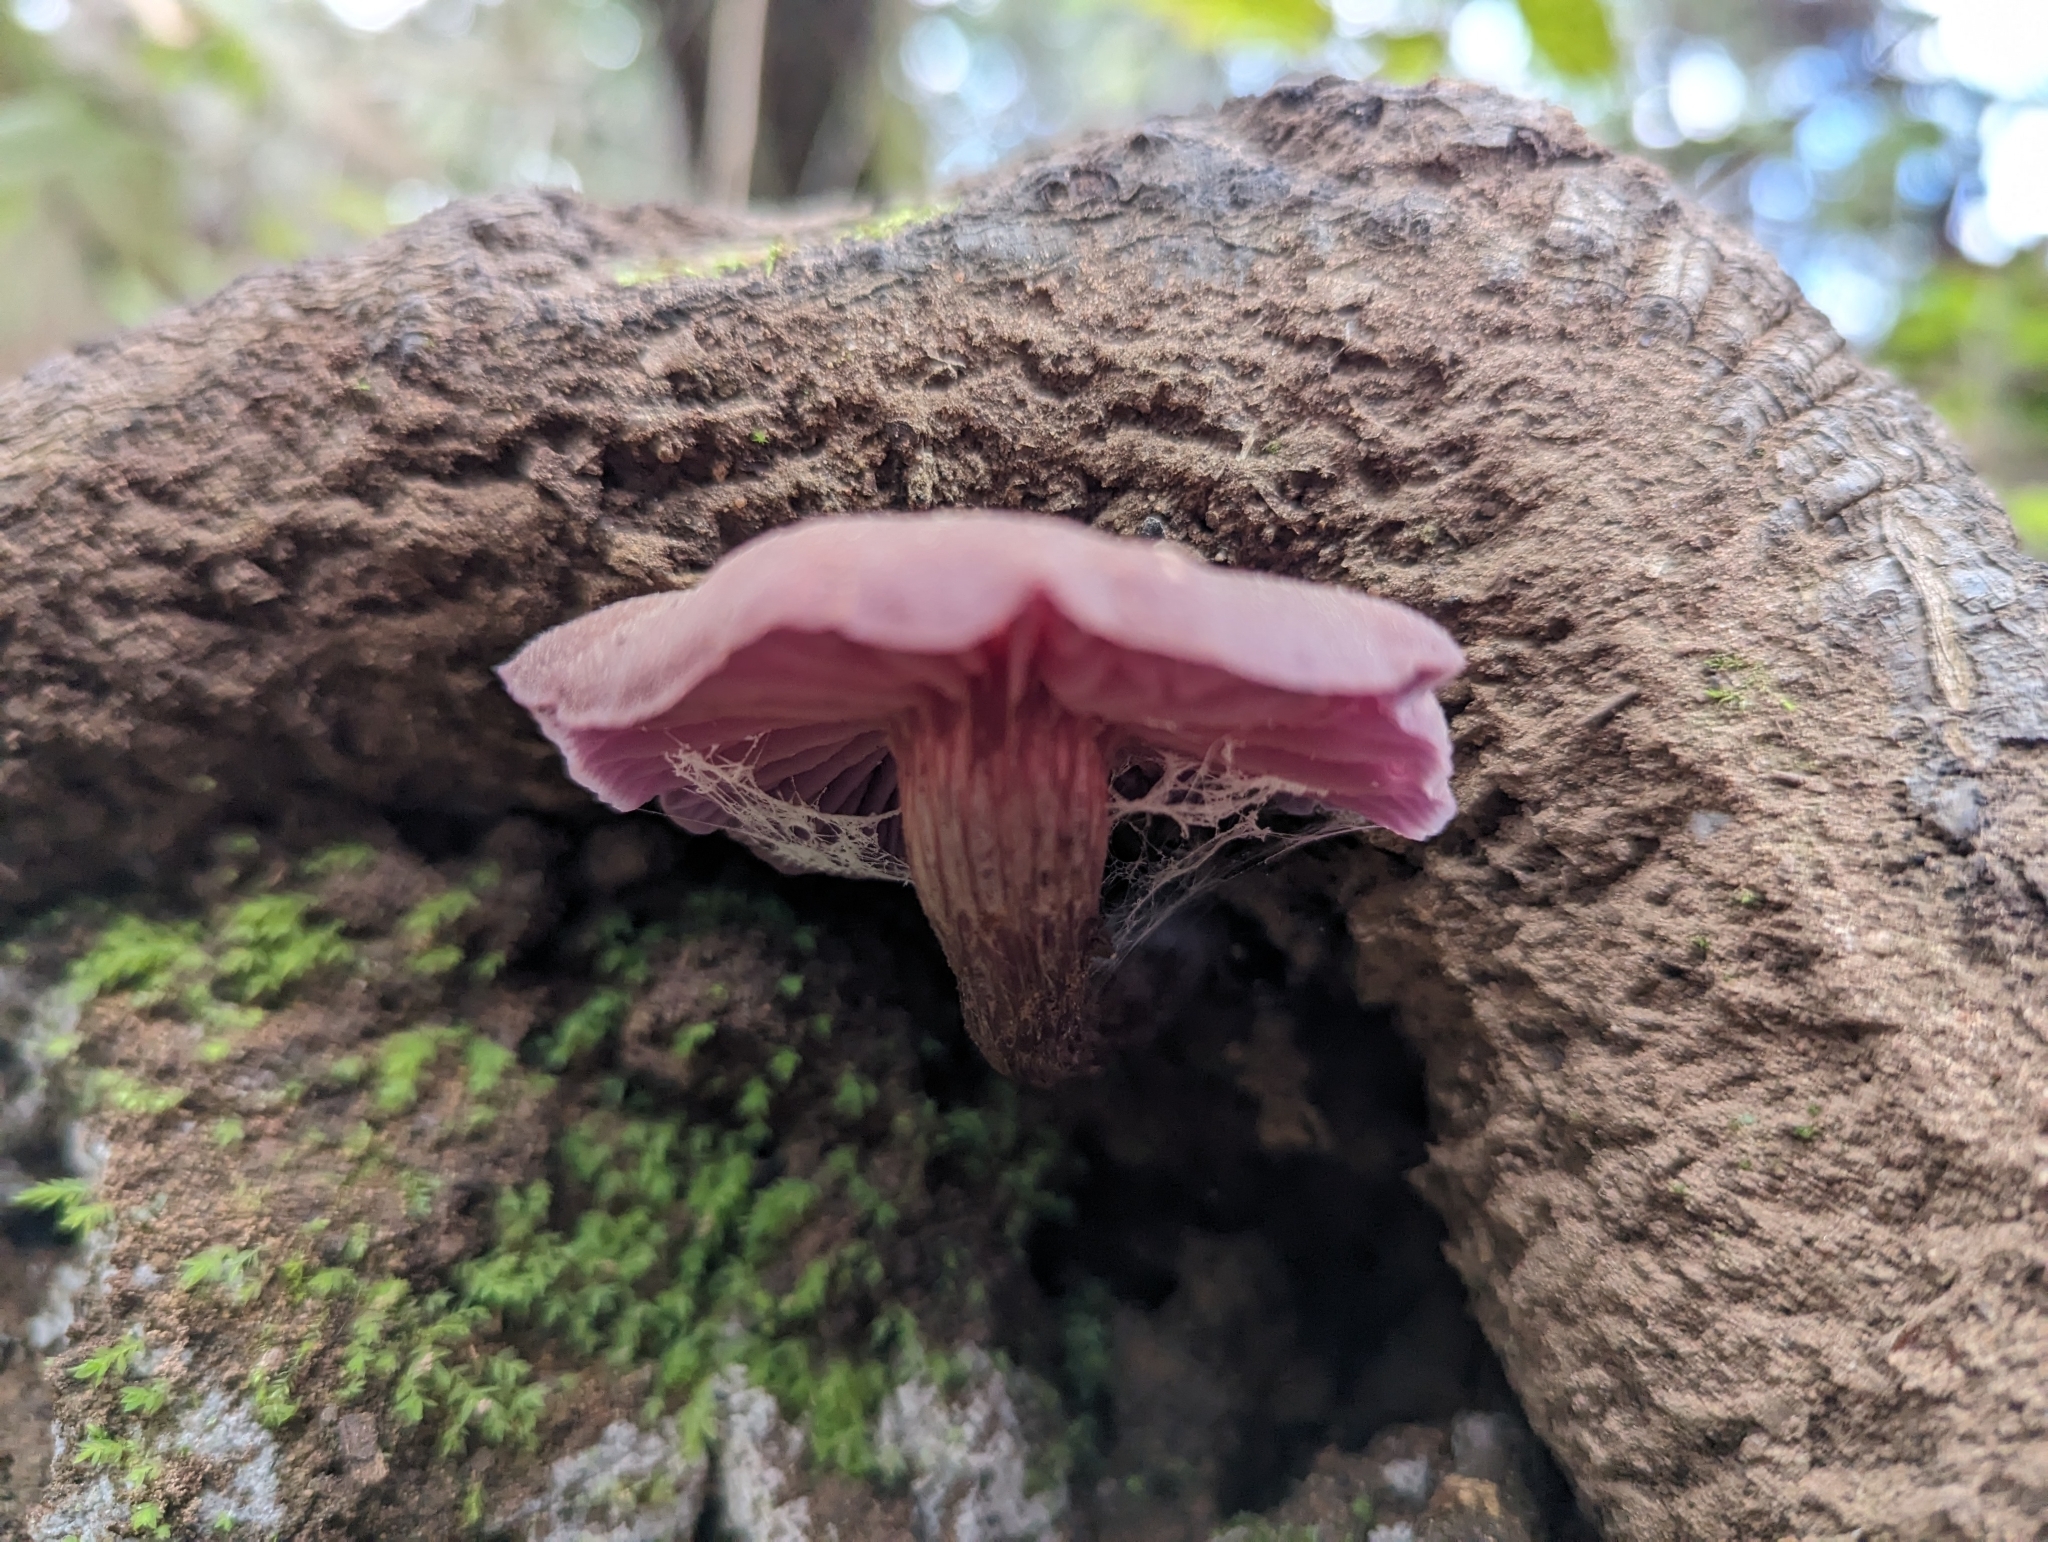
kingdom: Fungi
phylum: Basidiomycota
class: Agaricomycetes
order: Agaricales
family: Hydnangiaceae
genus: Laccaria
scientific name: Laccaria amethysteo-occidentalis
